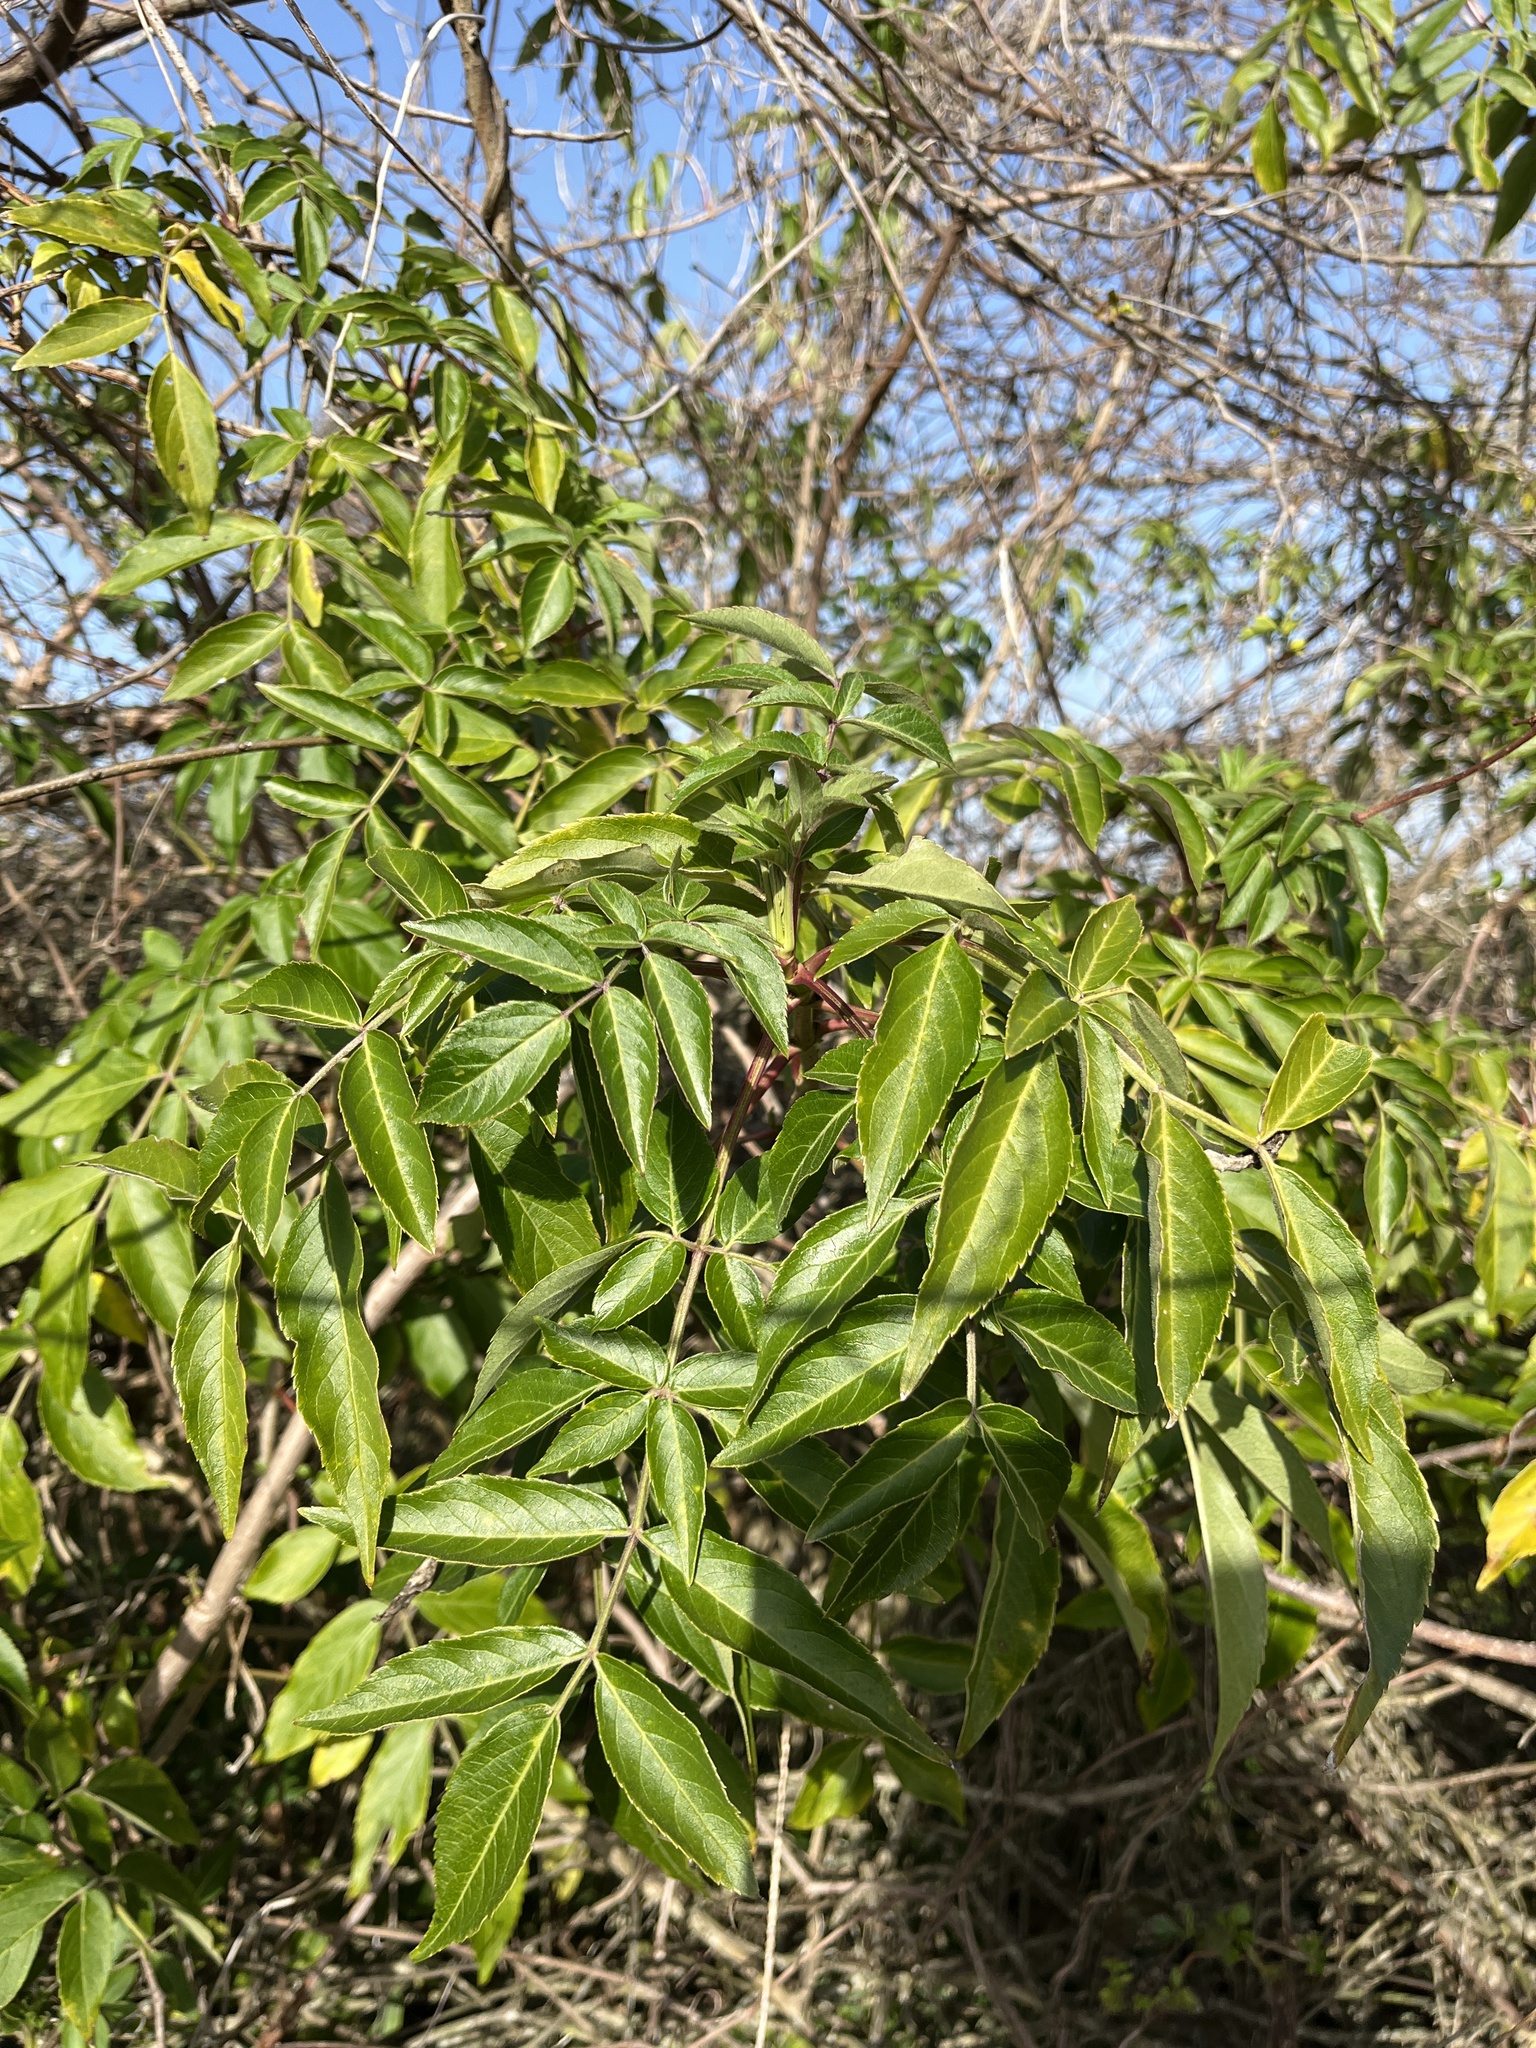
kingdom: Plantae
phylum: Tracheophyta
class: Magnoliopsida
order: Dipsacales
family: Viburnaceae
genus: Sambucus
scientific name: Sambucus canadensis
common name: American elder
